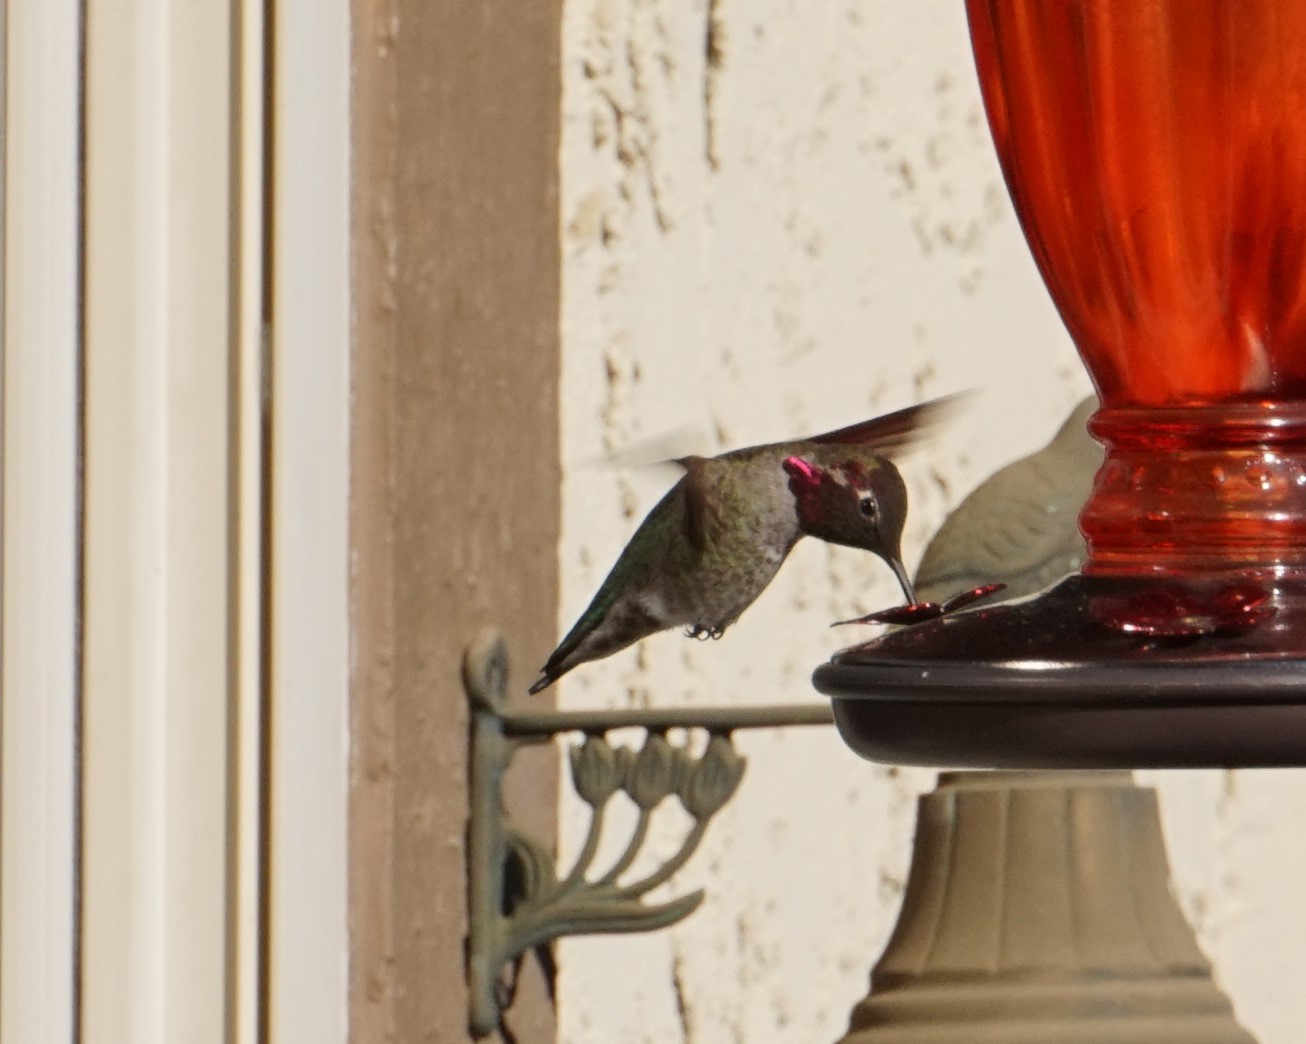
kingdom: Animalia
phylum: Chordata
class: Aves
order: Apodiformes
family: Trochilidae
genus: Calypte
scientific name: Calypte anna
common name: Anna's hummingbird
